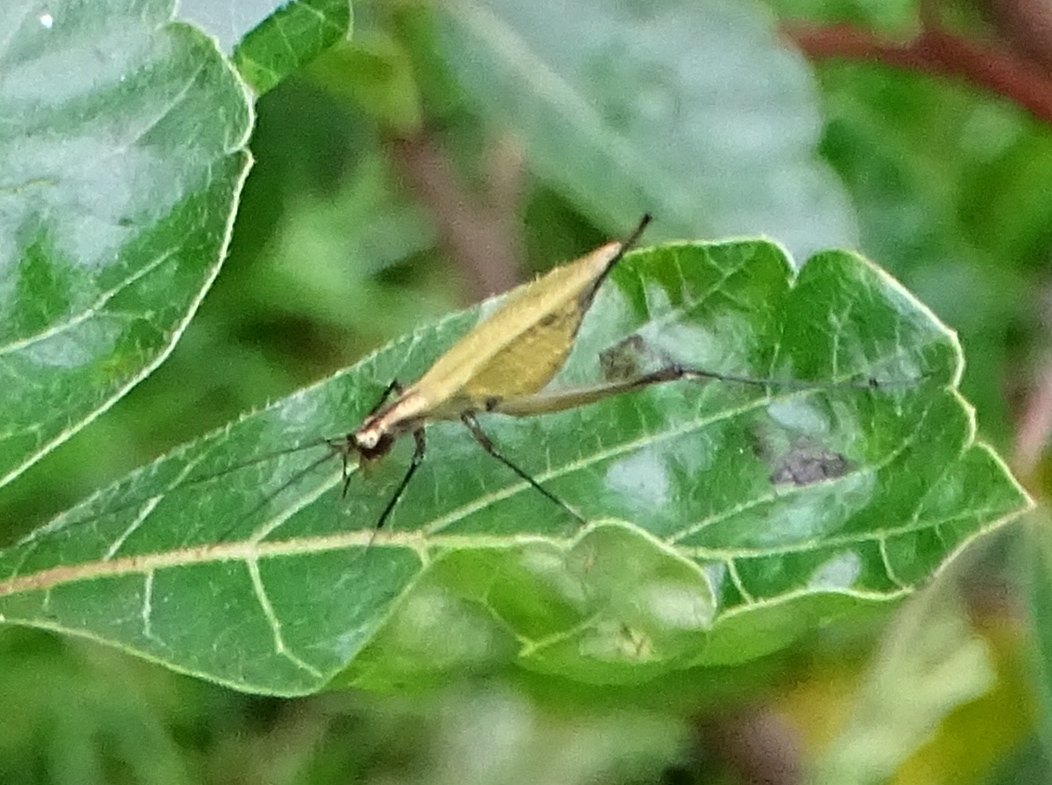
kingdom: Animalia
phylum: Arthropoda
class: Insecta
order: Orthoptera
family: Gryllidae
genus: Oecanthus
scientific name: Oecanthus nigricornis
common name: Black-horned tree cricket
